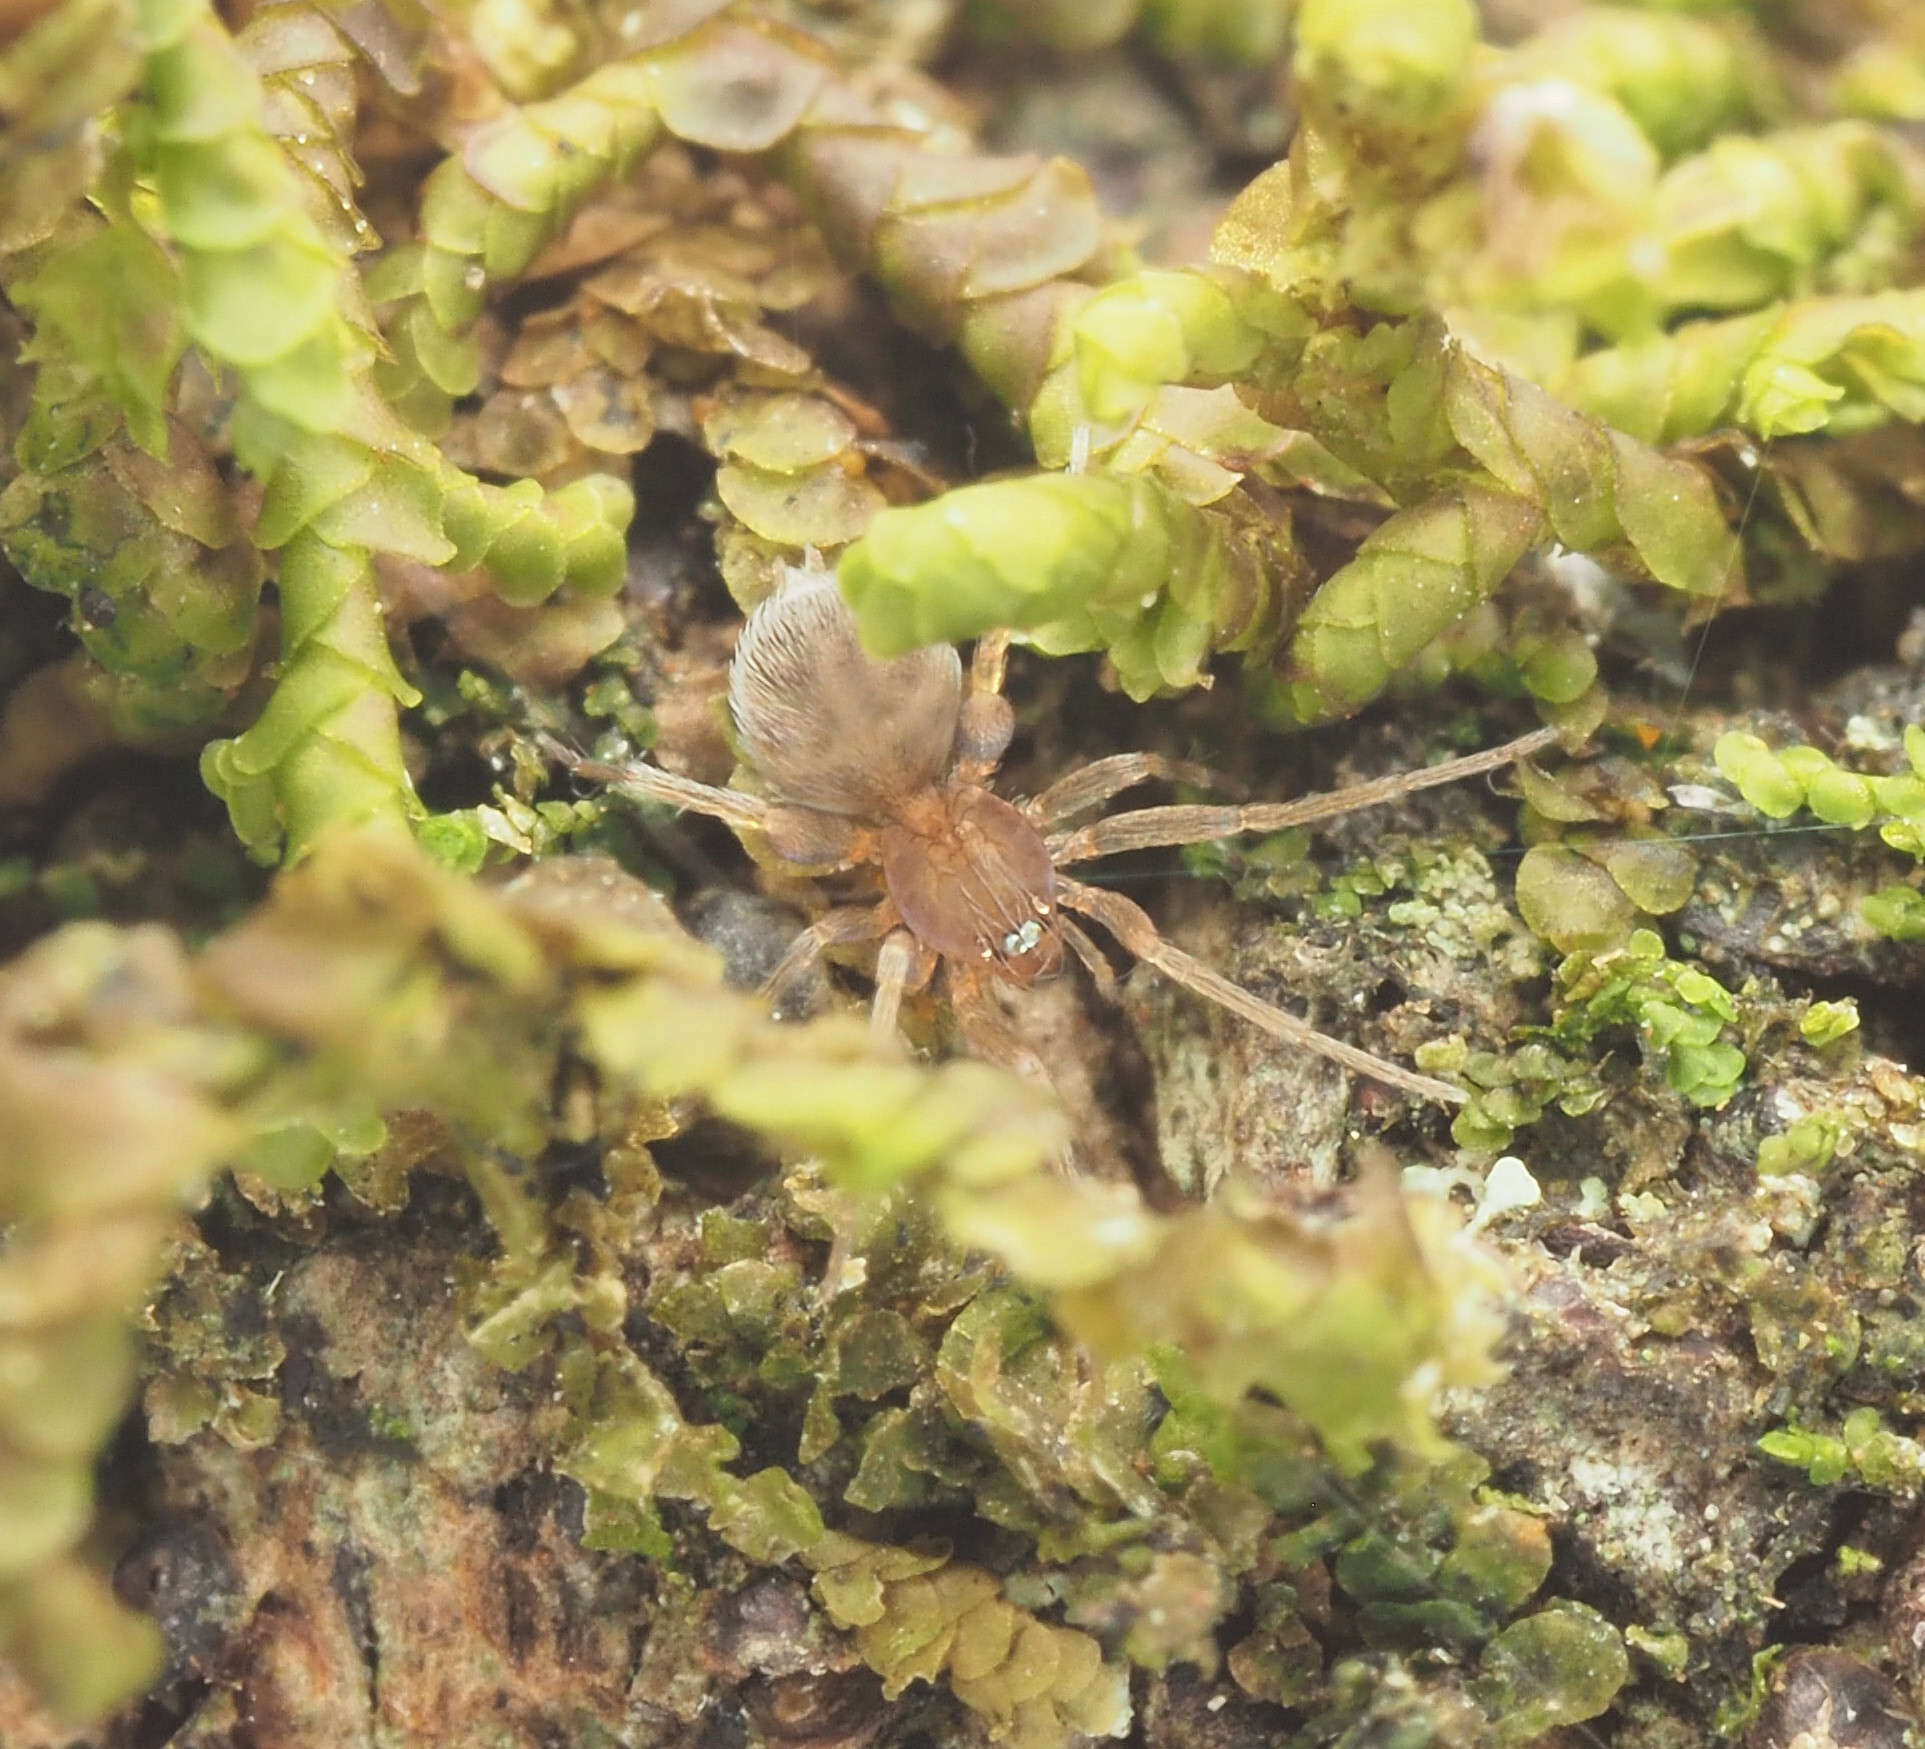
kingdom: Animalia
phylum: Arthropoda
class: Arachnida
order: Araneae
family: Oonopidae
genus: Orchestina
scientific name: Orchestina
